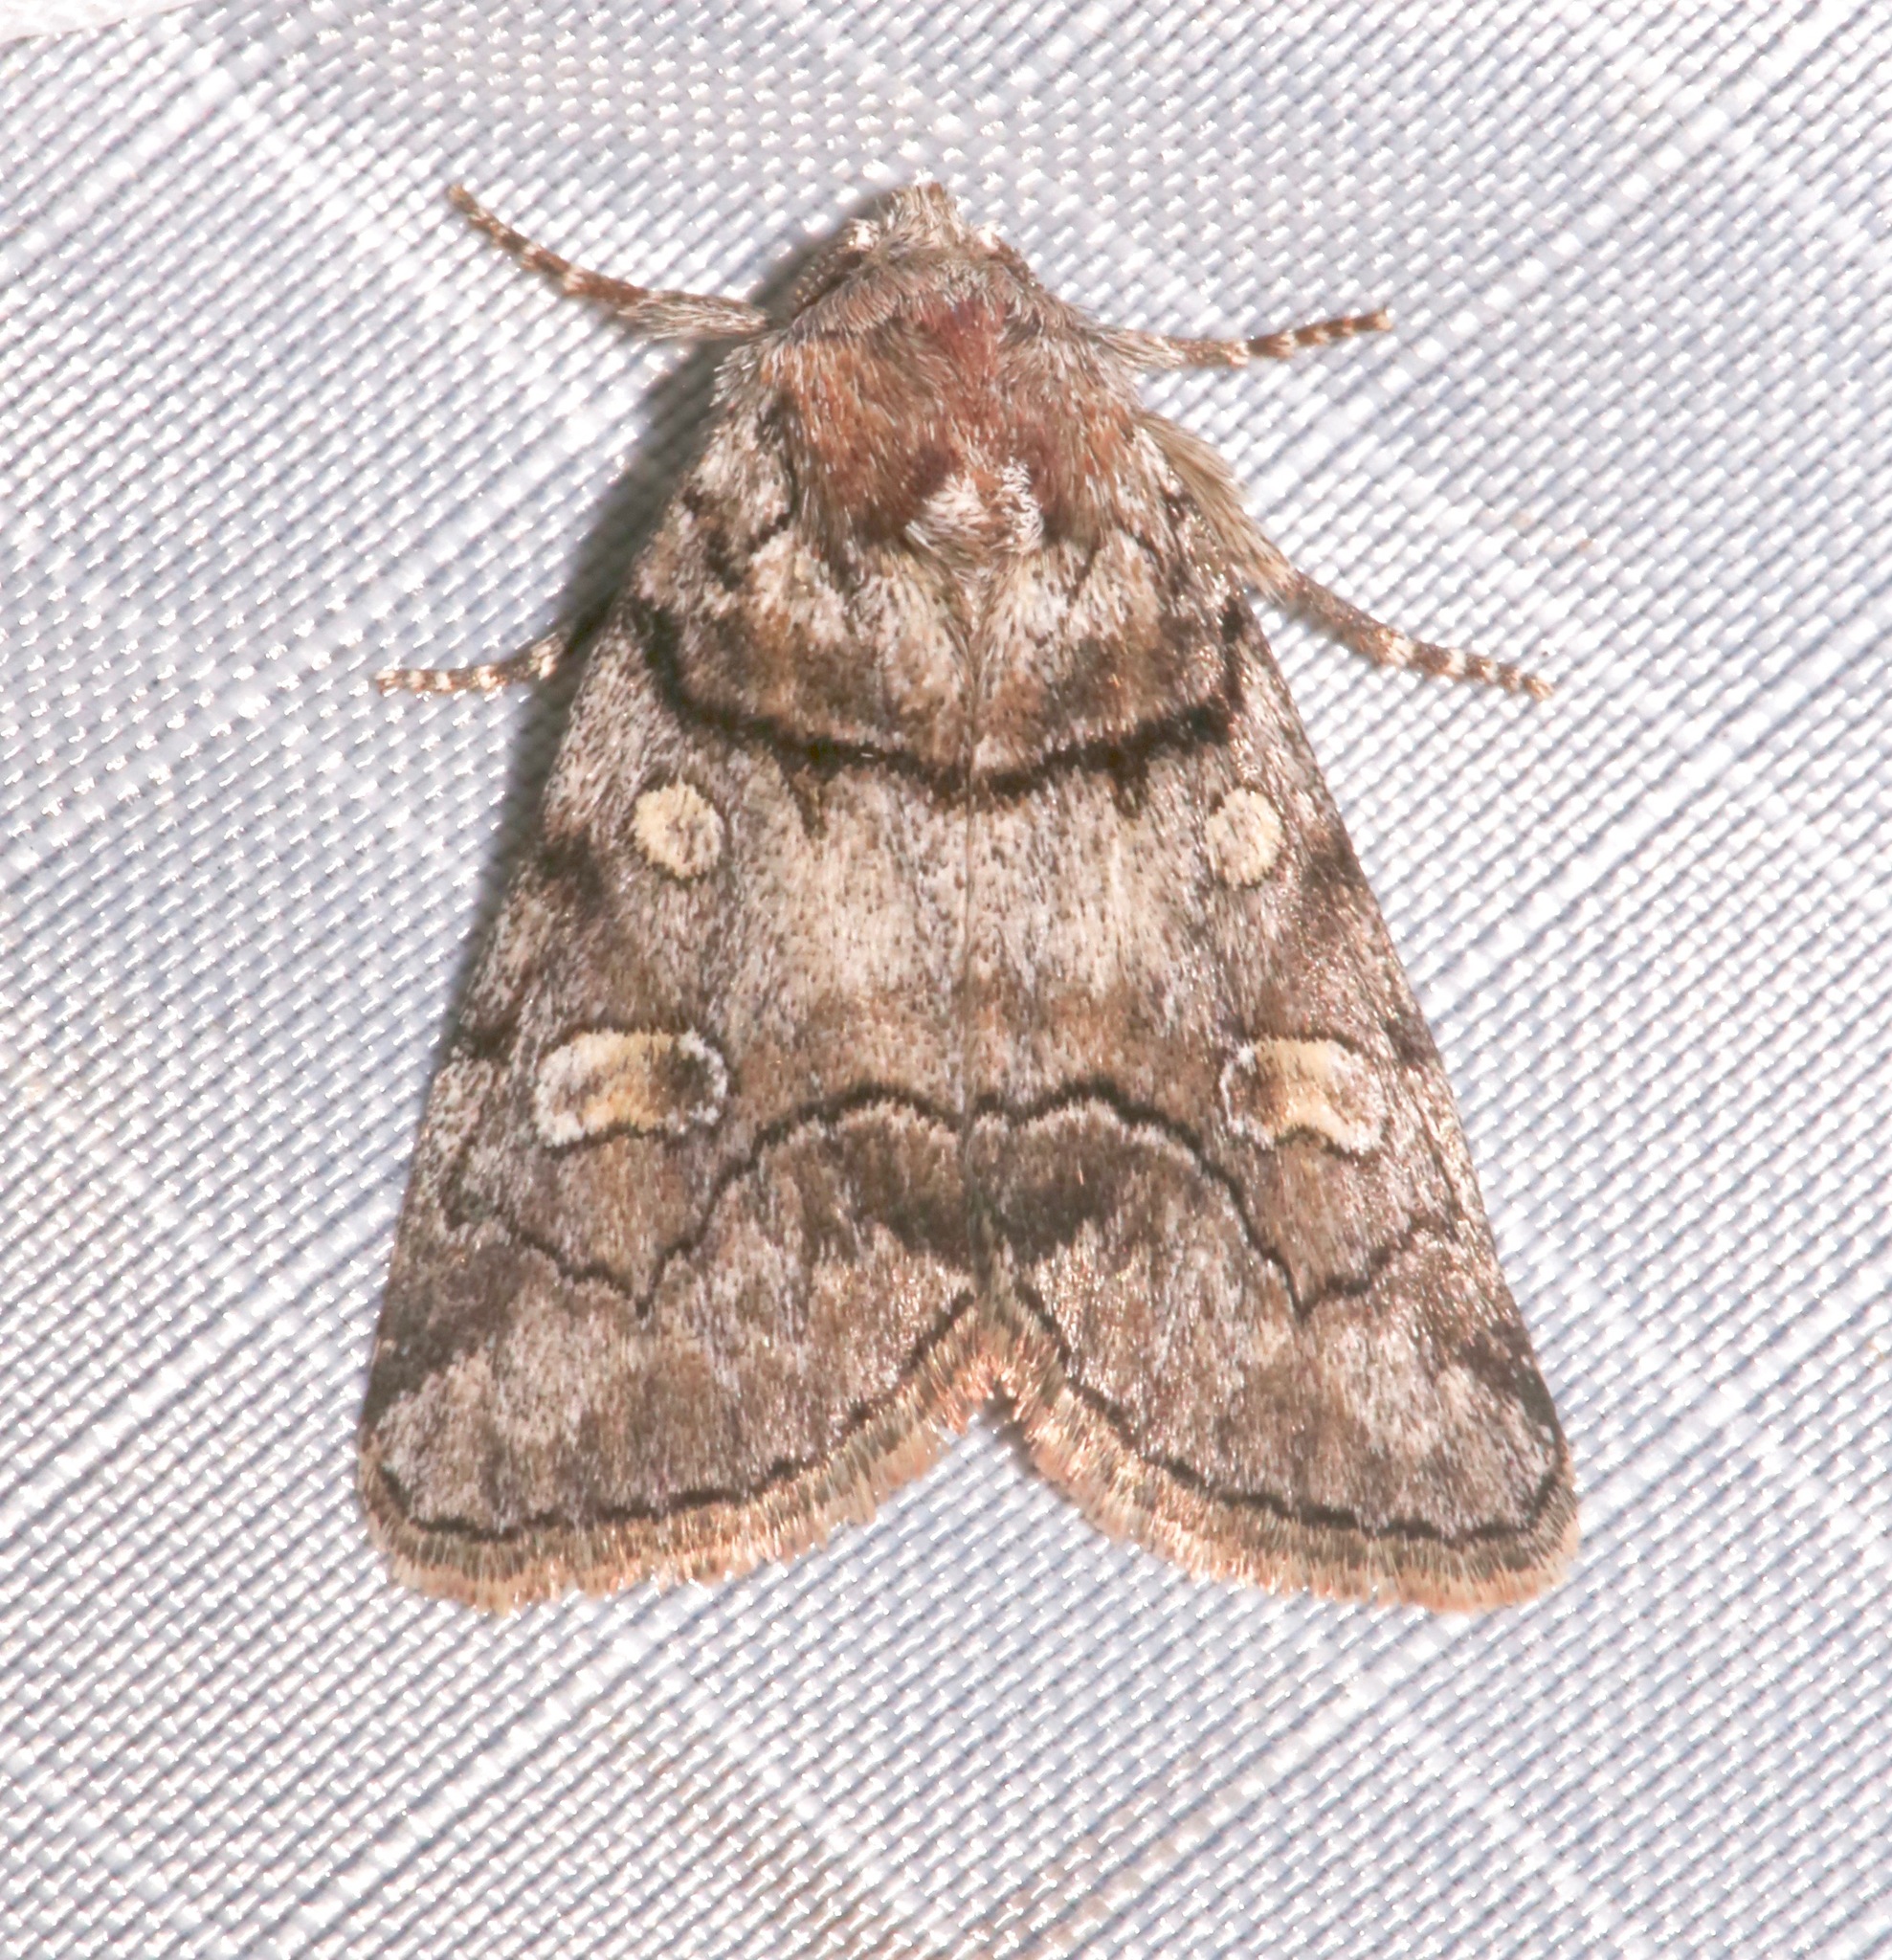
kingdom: Animalia
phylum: Arthropoda
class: Insecta
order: Lepidoptera
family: Noctuidae
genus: Cosmia
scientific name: Cosmia praeacuta
